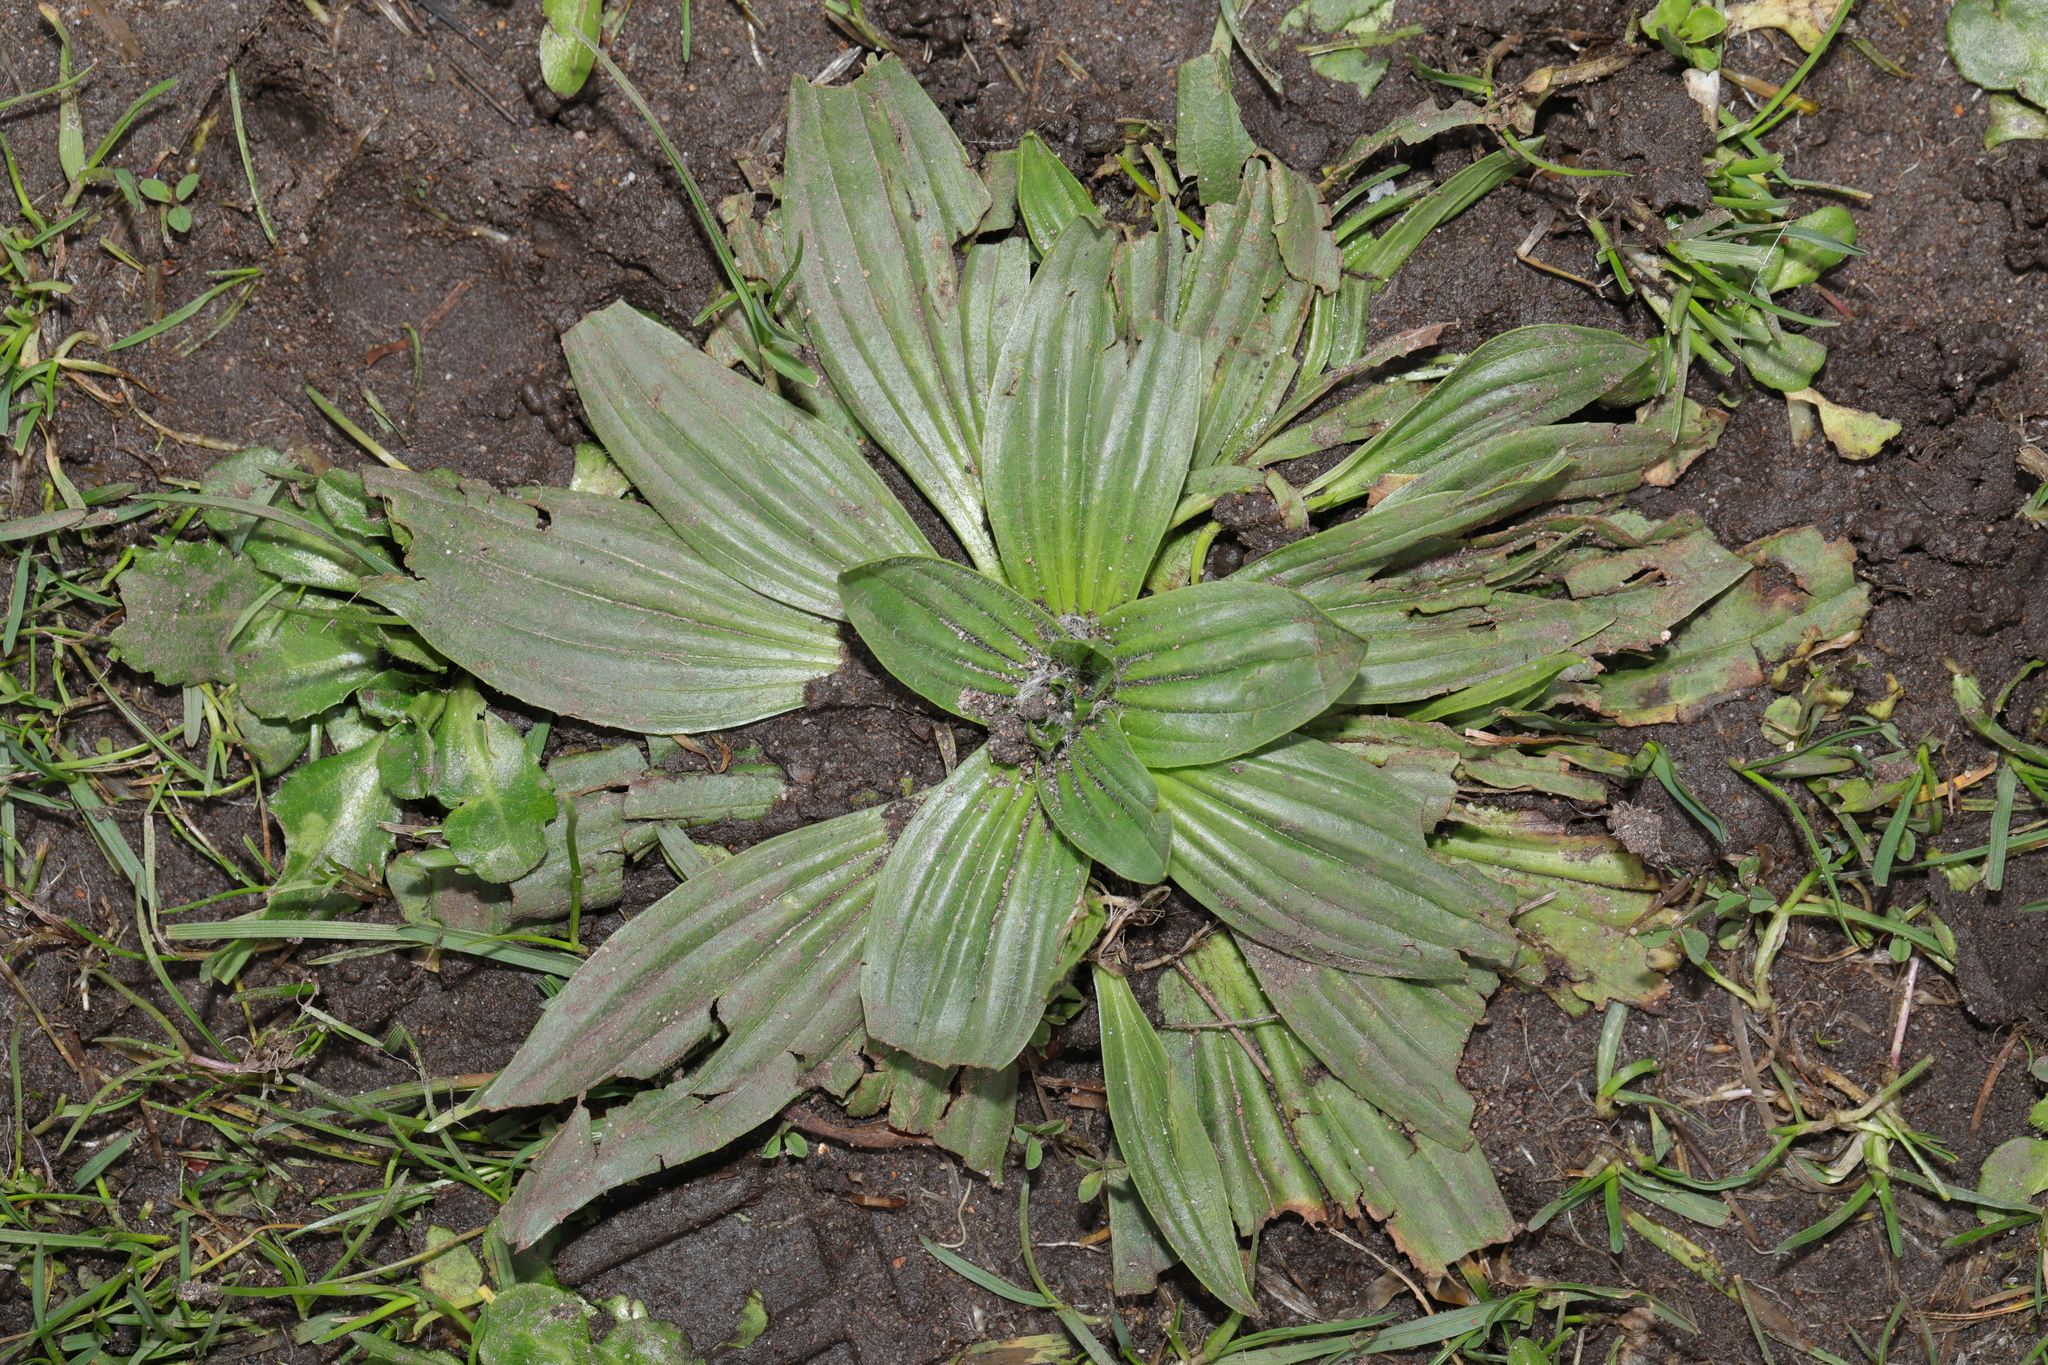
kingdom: Plantae
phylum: Tracheophyta
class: Magnoliopsida
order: Lamiales
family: Plantaginaceae
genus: Plantago
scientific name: Plantago lanceolata
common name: Ribwort plantain
